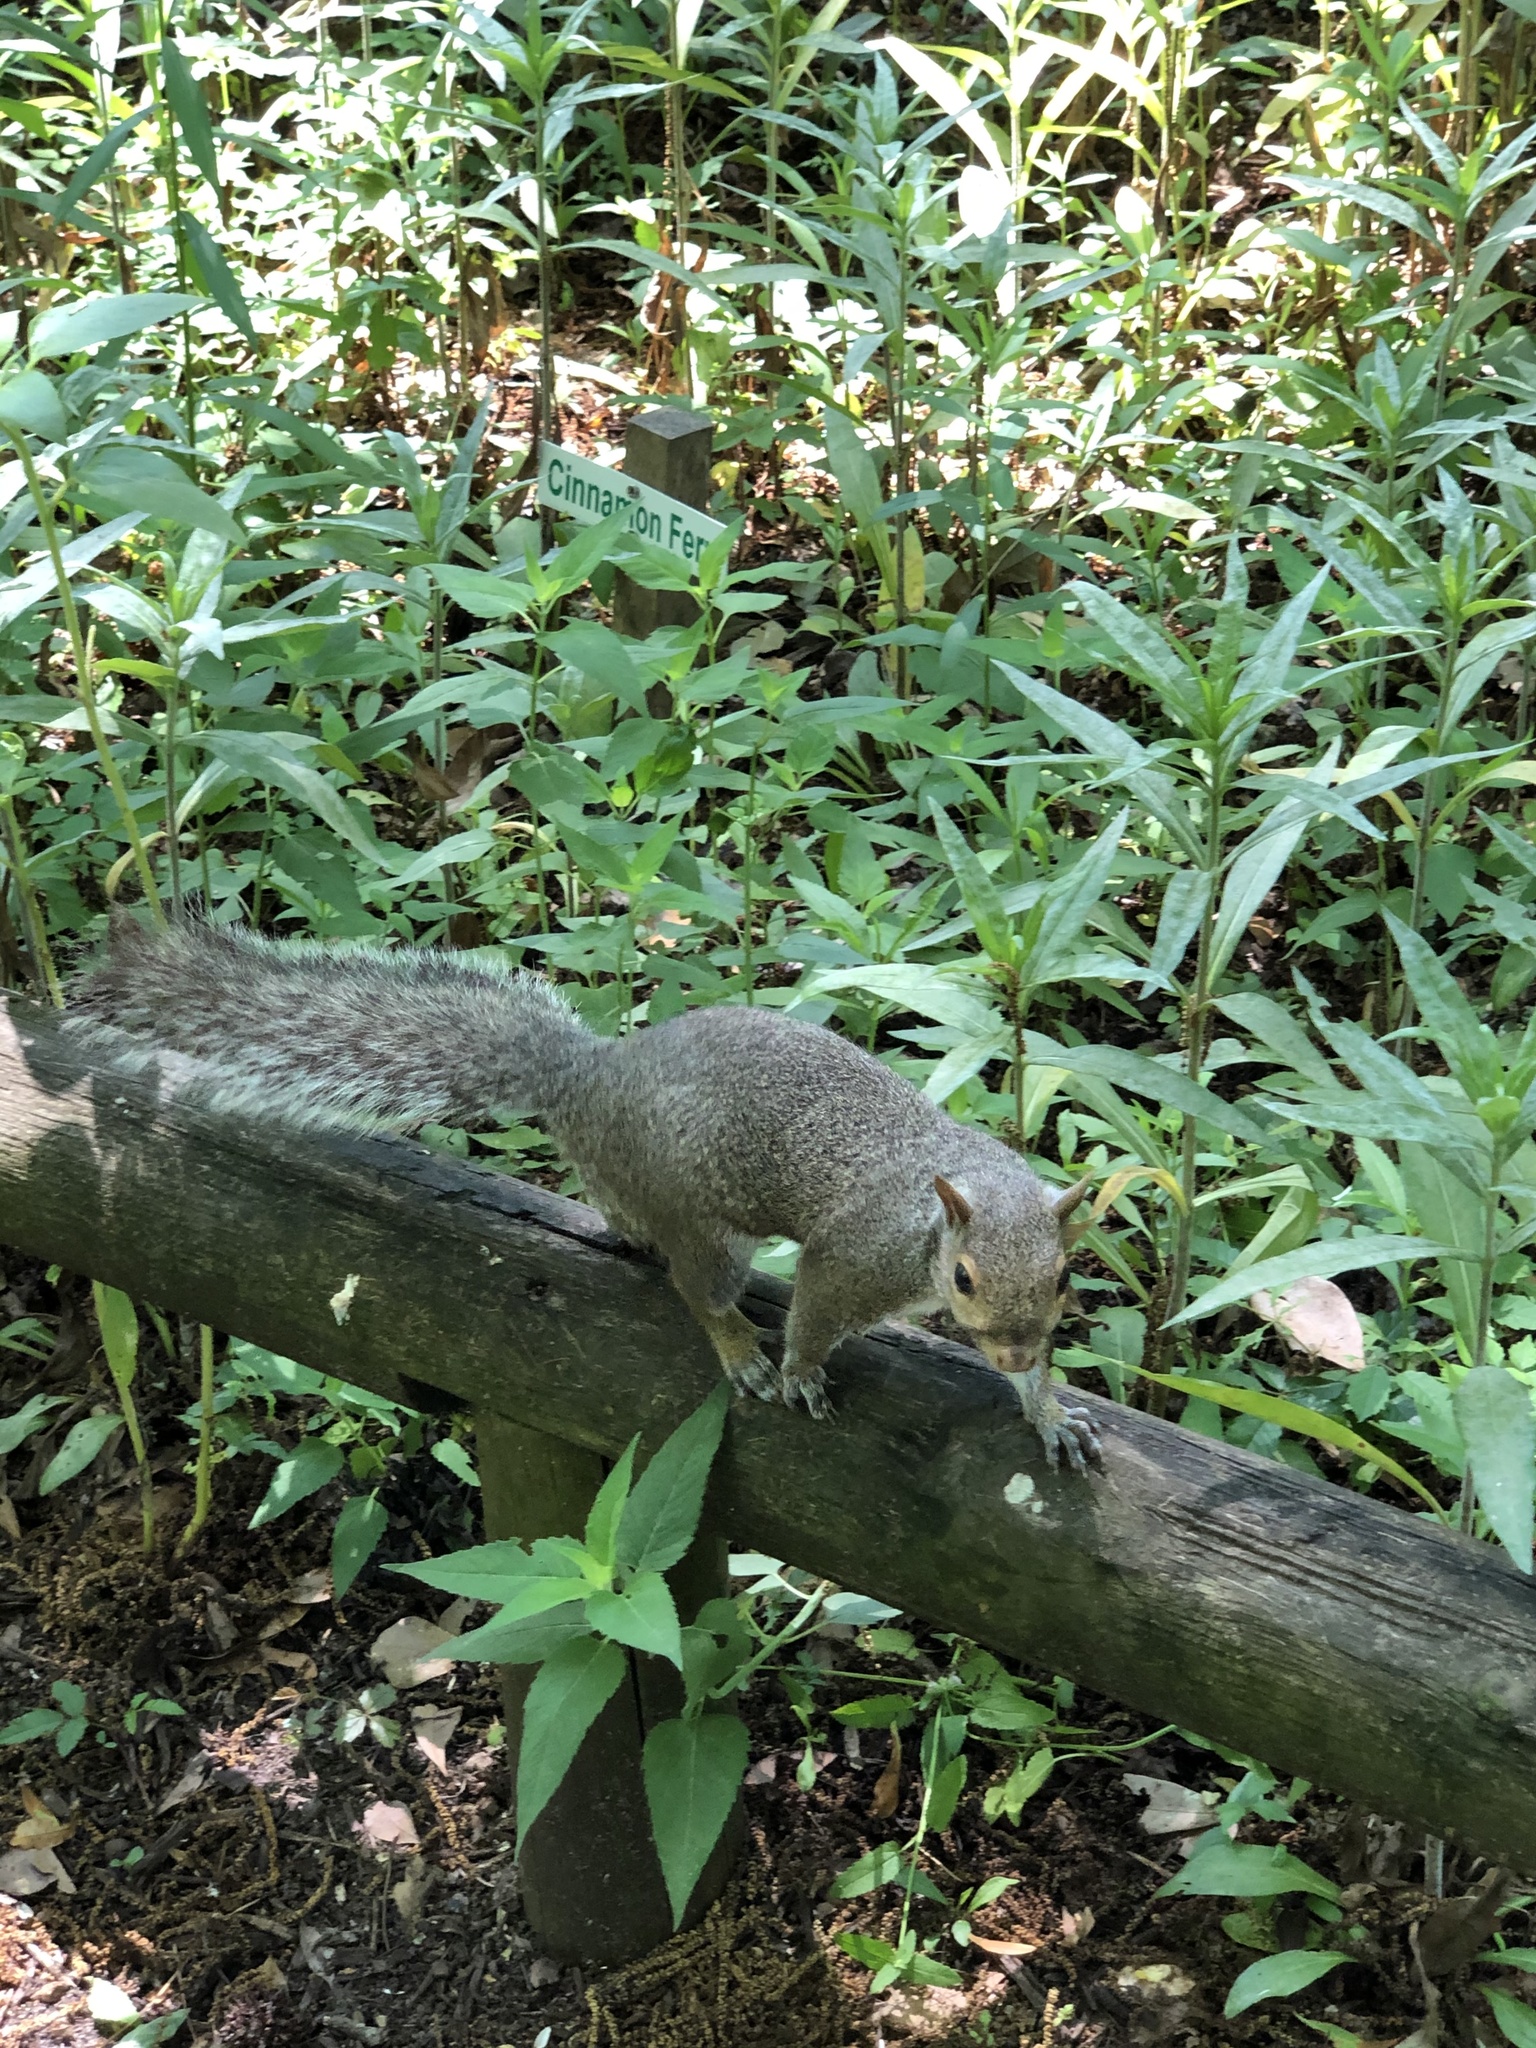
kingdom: Animalia
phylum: Chordata
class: Mammalia
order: Rodentia
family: Sciuridae
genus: Sciurus
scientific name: Sciurus carolinensis
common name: Eastern gray squirrel
